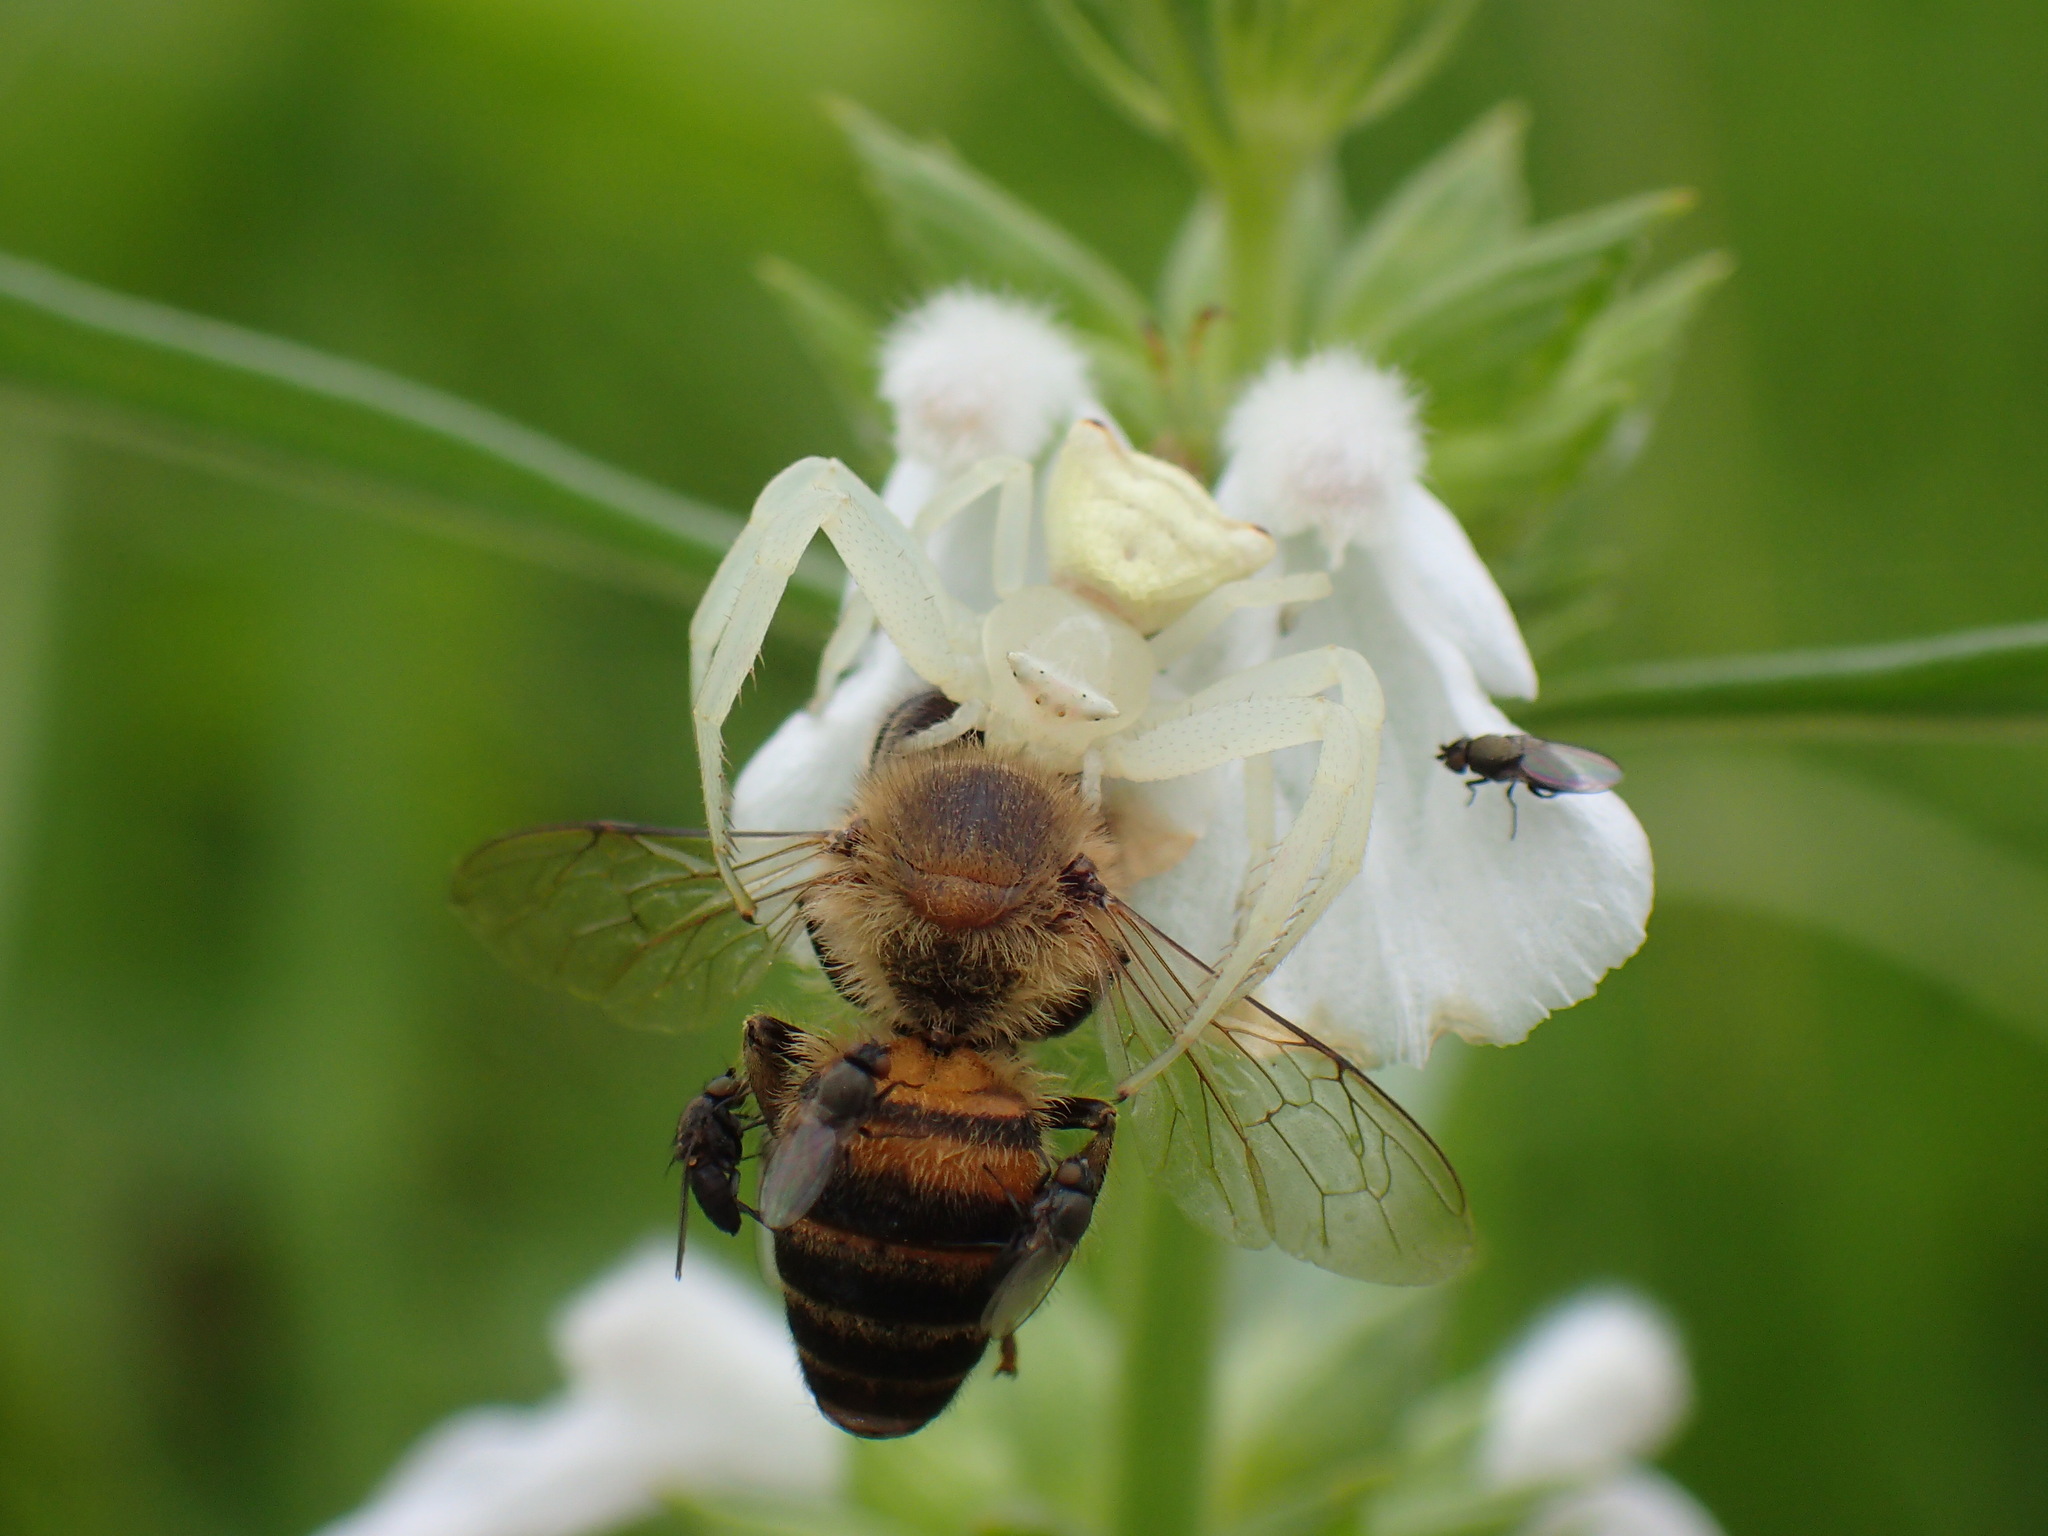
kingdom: Animalia
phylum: Arthropoda
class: Insecta
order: Hymenoptera
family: Apidae
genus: Apis
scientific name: Apis mellifera
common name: Honey bee
